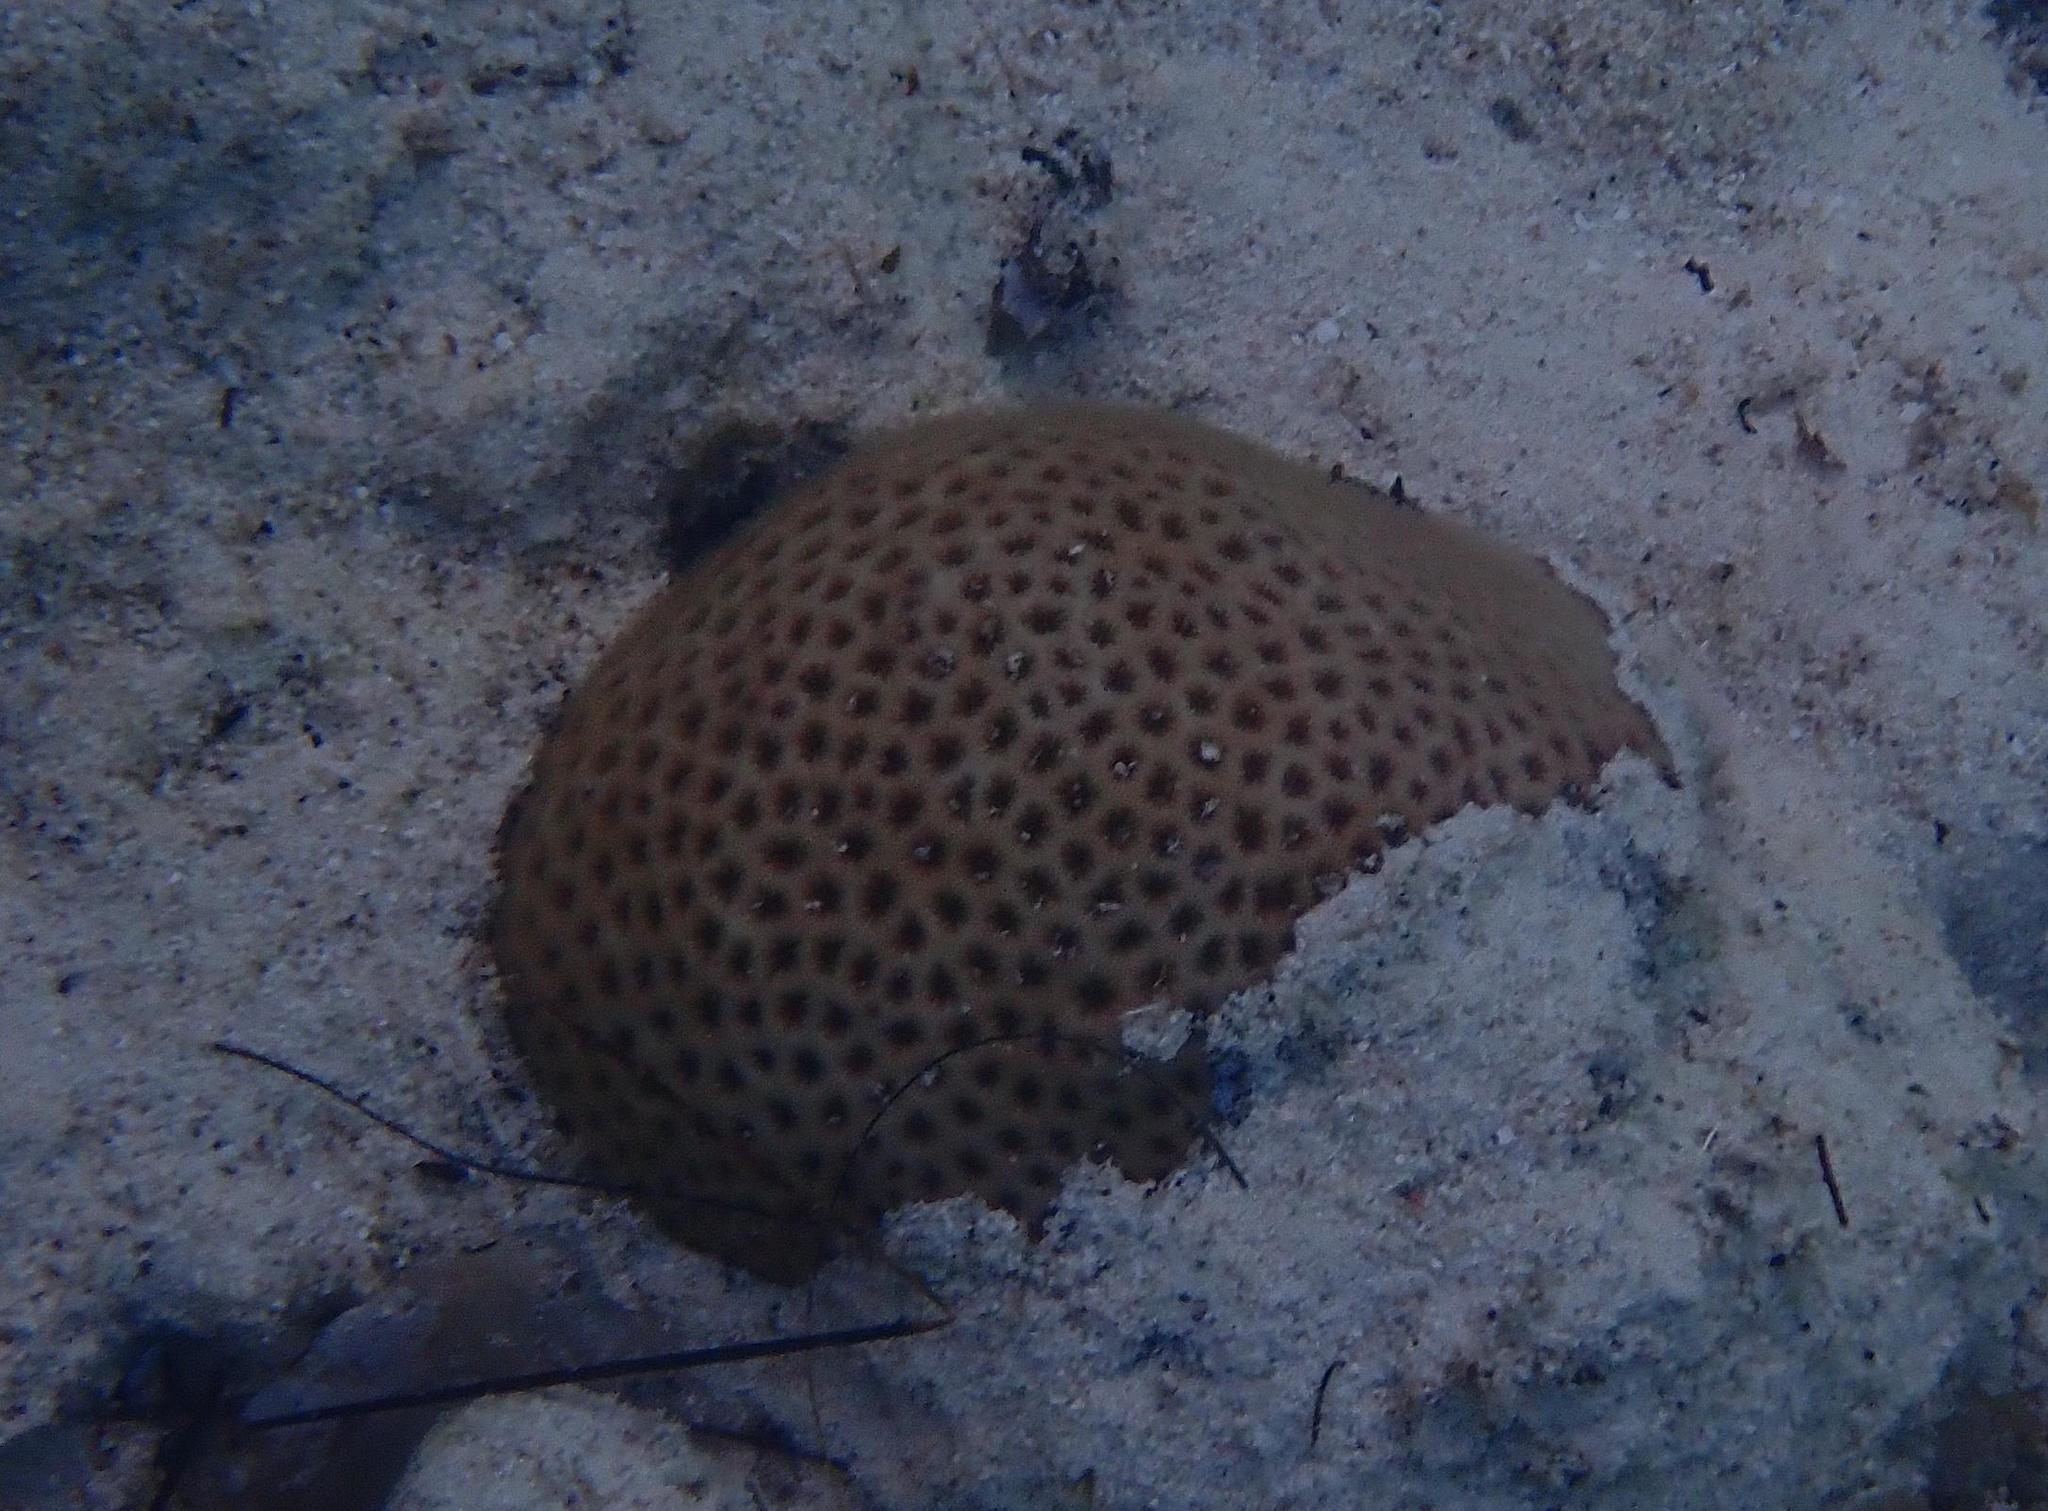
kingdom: Animalia
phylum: Cnidaria
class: Anthozoa
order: Scleractinia
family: Rhizangiidae
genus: Siderastrea
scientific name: Siderastrea radians
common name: Lesser starlet coral
